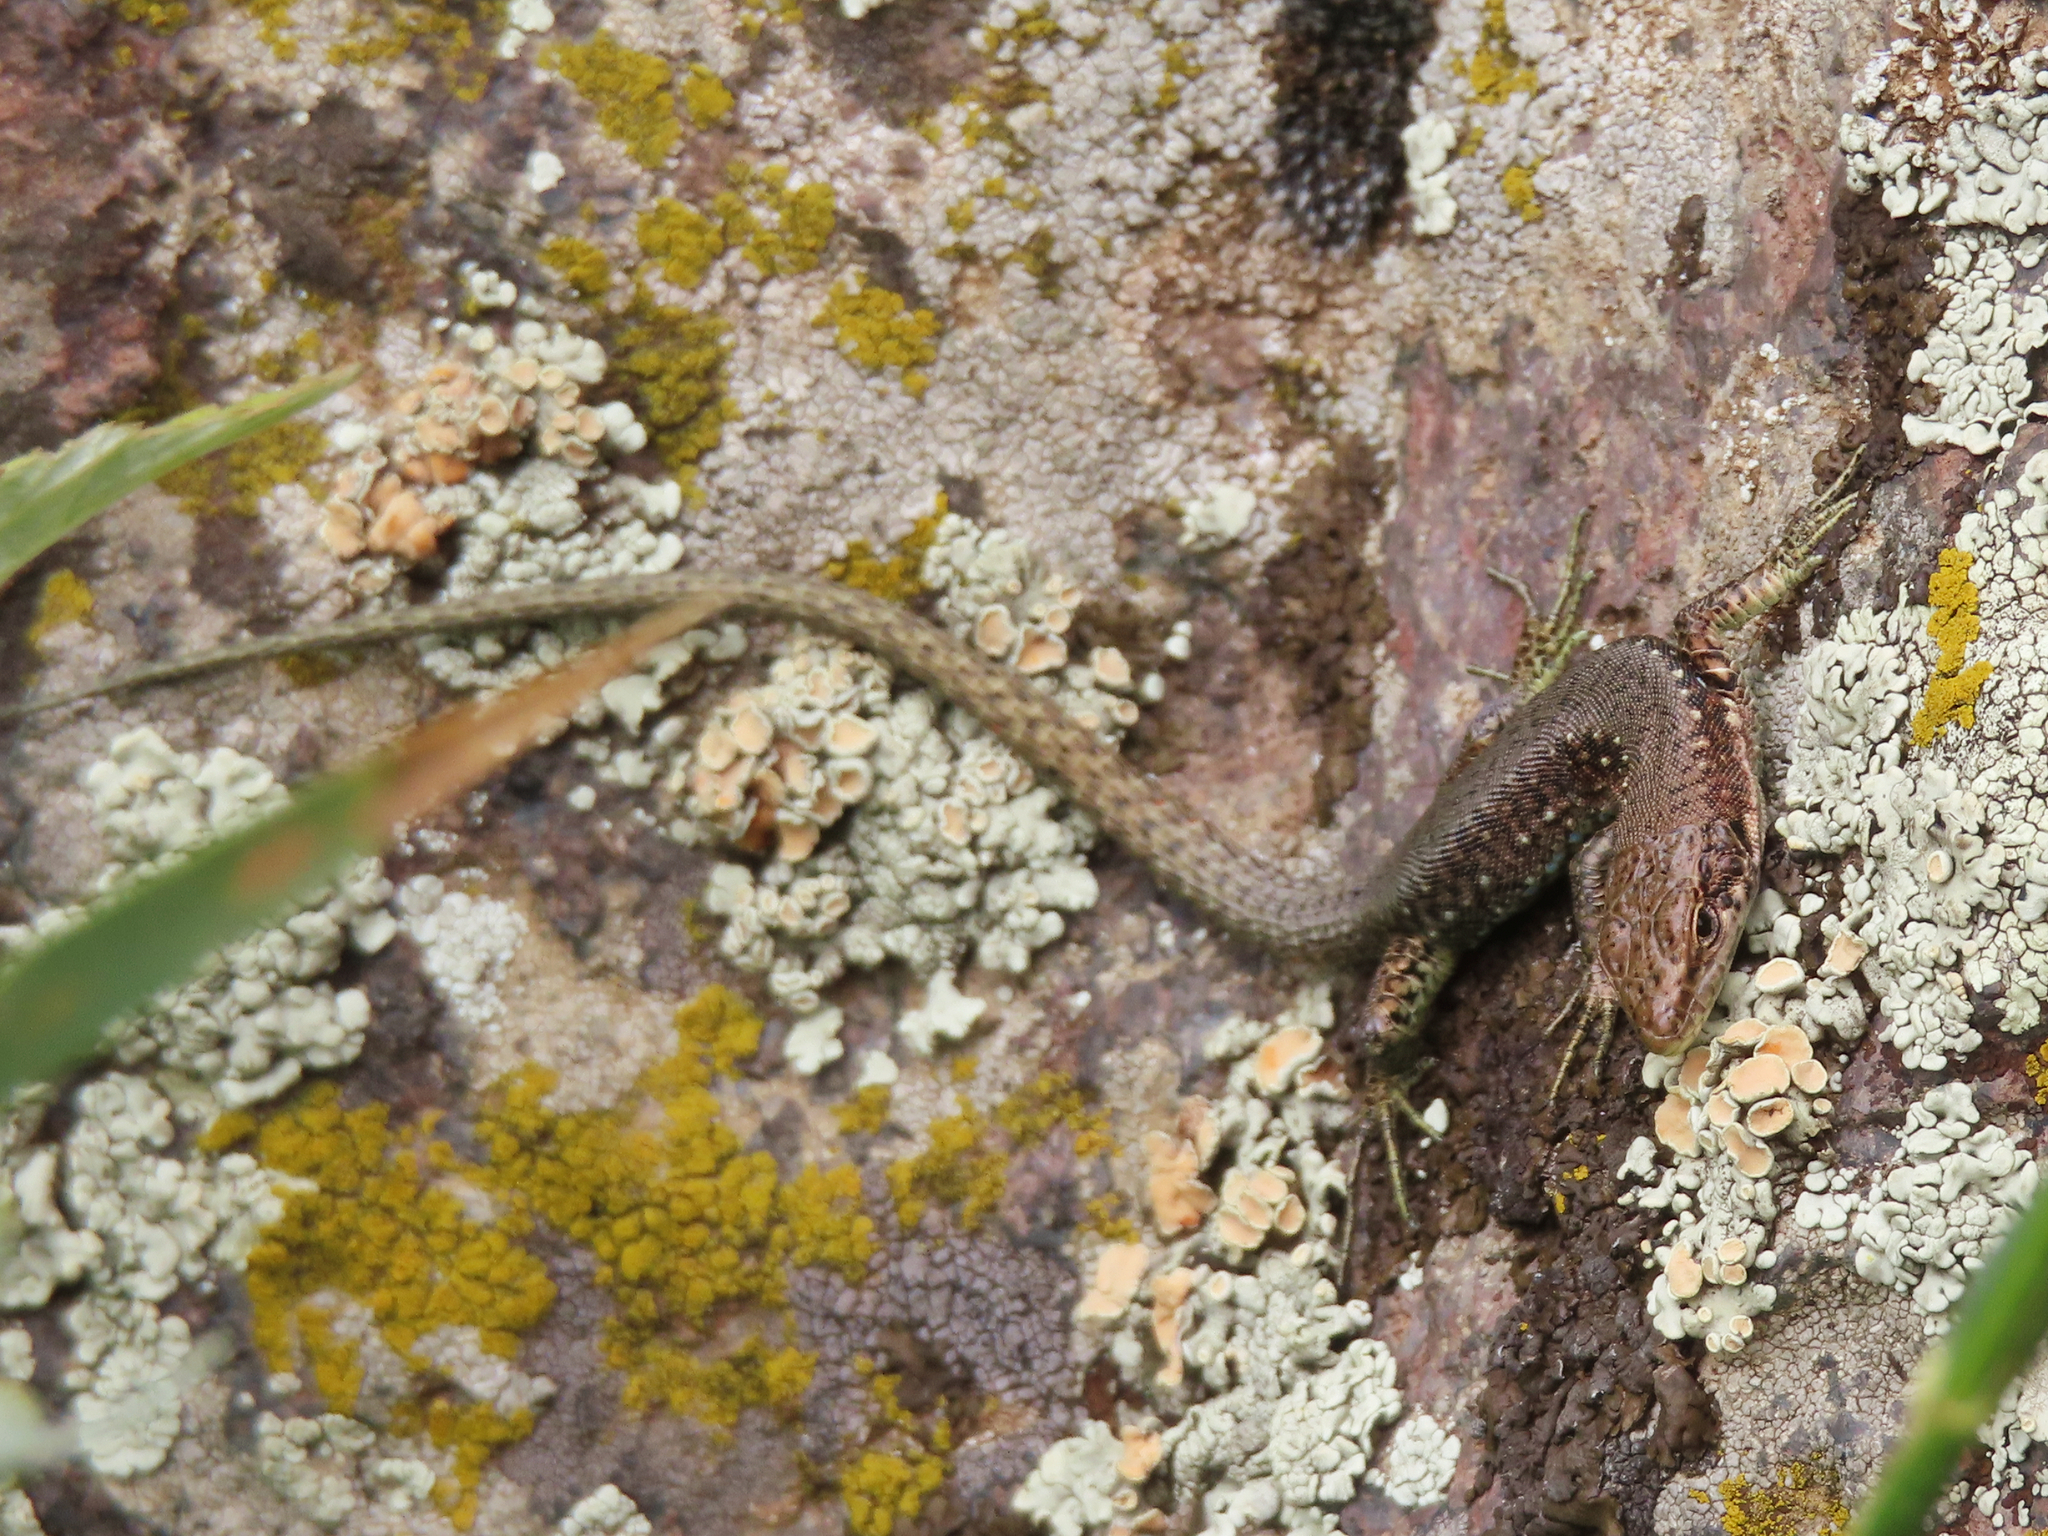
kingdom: Animalia
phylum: Chordata
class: Squamata
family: Lacertidae
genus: Darevskia
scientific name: Darevskia
